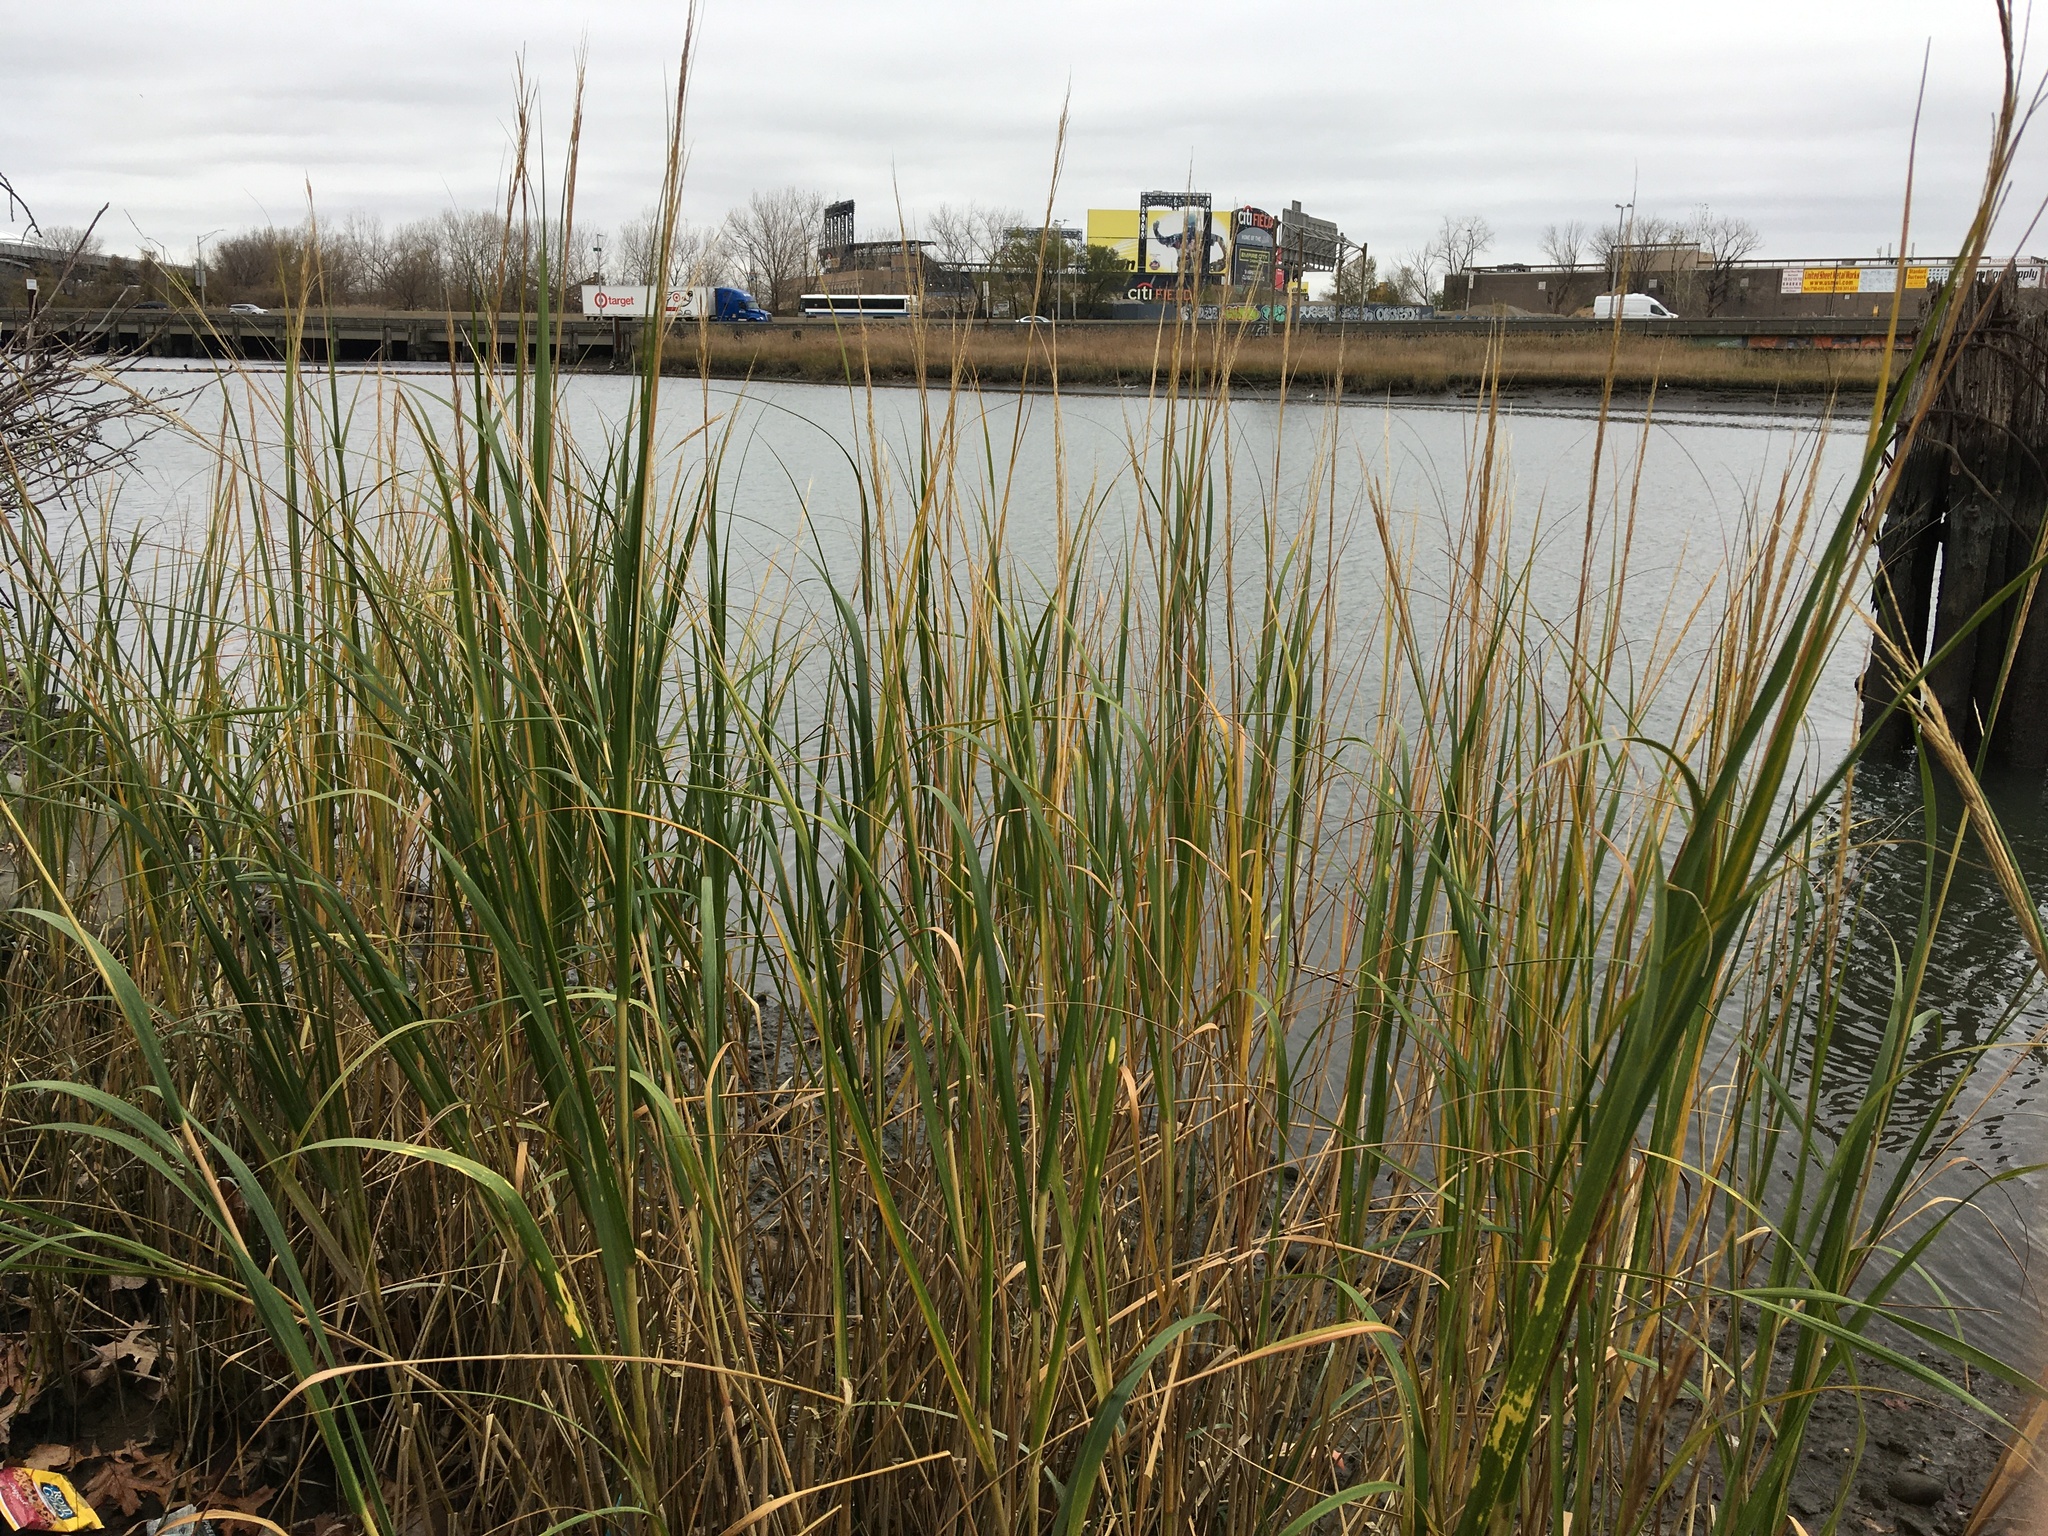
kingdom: Plantae
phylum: Tracheophyta
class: Liliopsida
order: Poales
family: Poaceae
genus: Sporobolus
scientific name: Sporobolus alterniflorus
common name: Atlantic cordgrass
